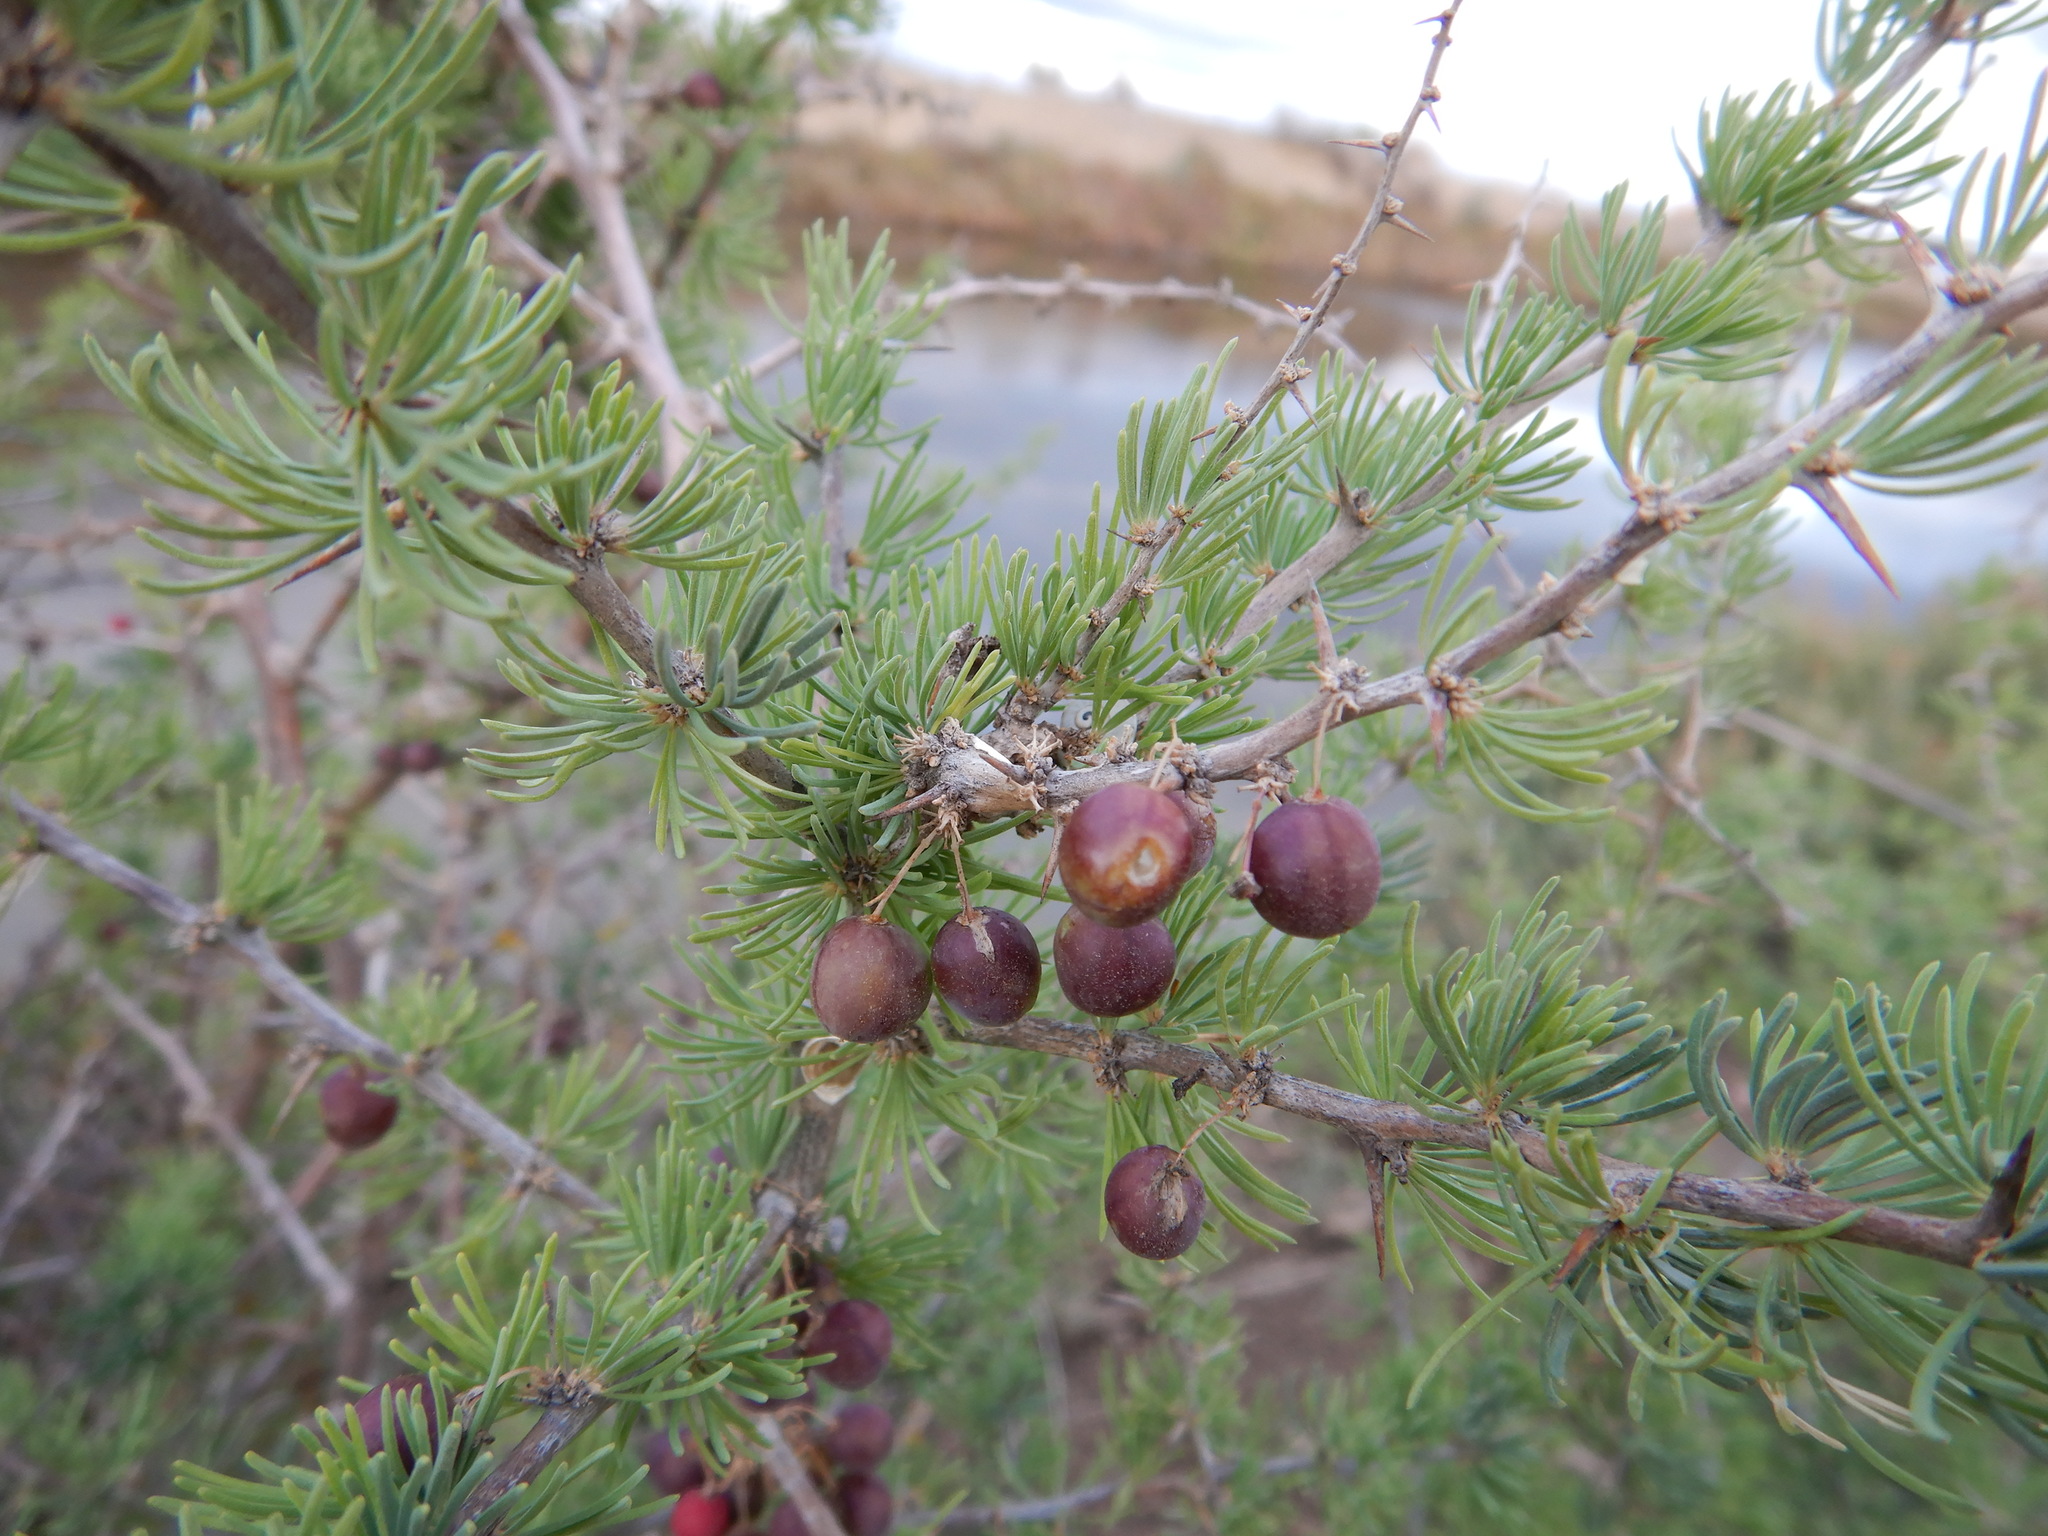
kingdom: Plantae
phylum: Tracheophyta
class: Liliopsida
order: Asparagales
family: Asparagaceae
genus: Asparagus
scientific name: Asparagus albus
